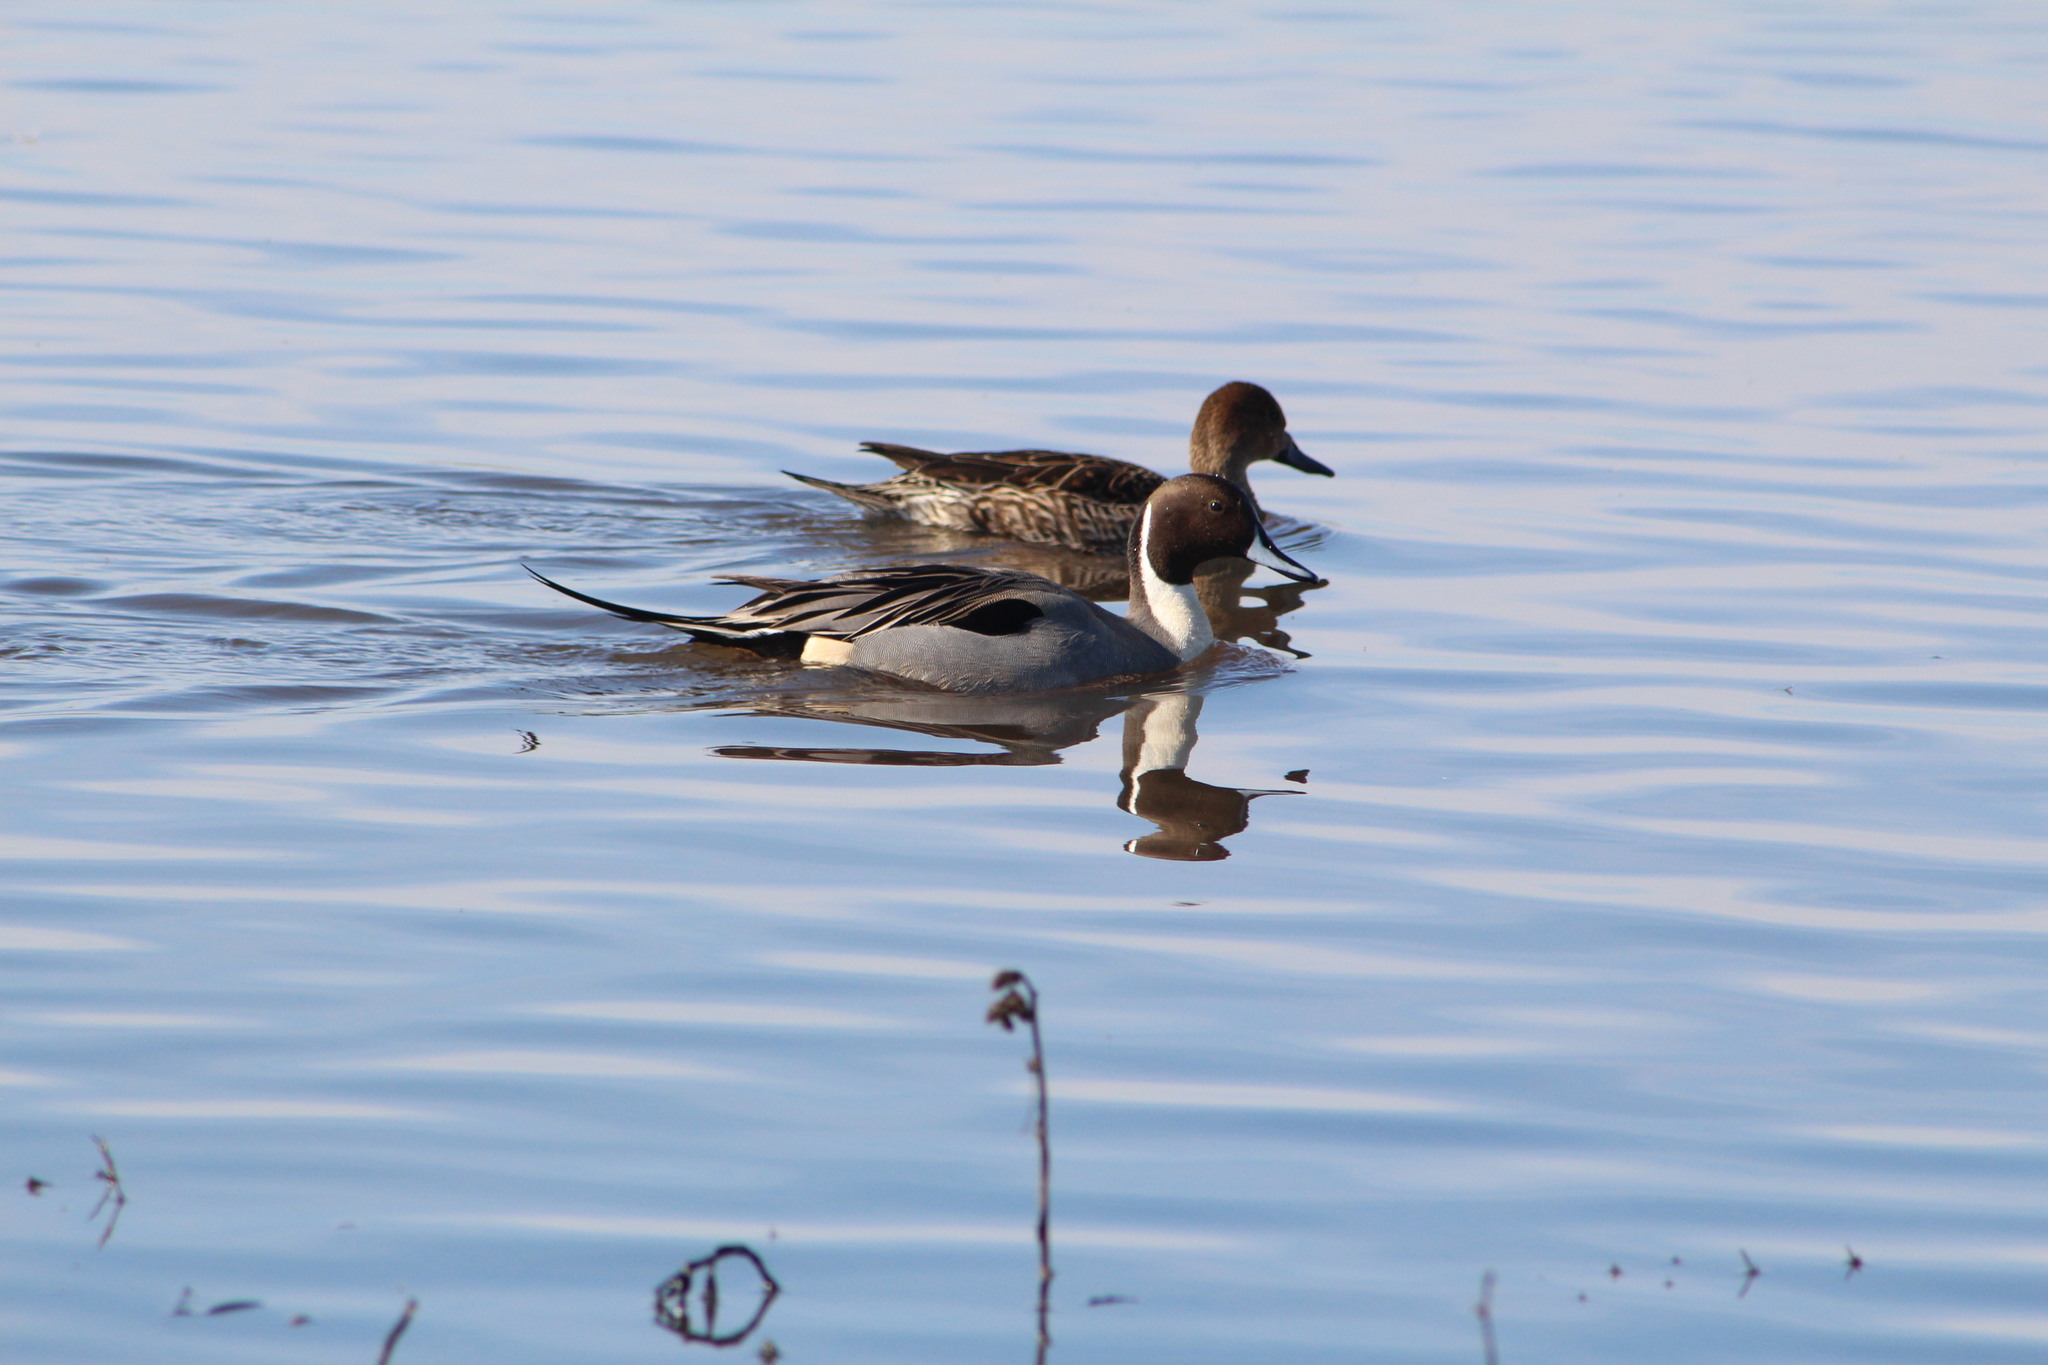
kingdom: Animalia
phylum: Chordata
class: Aves
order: Anseriformes
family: Anatidae
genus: Anas
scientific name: Anas acuta
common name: Northern pintail
